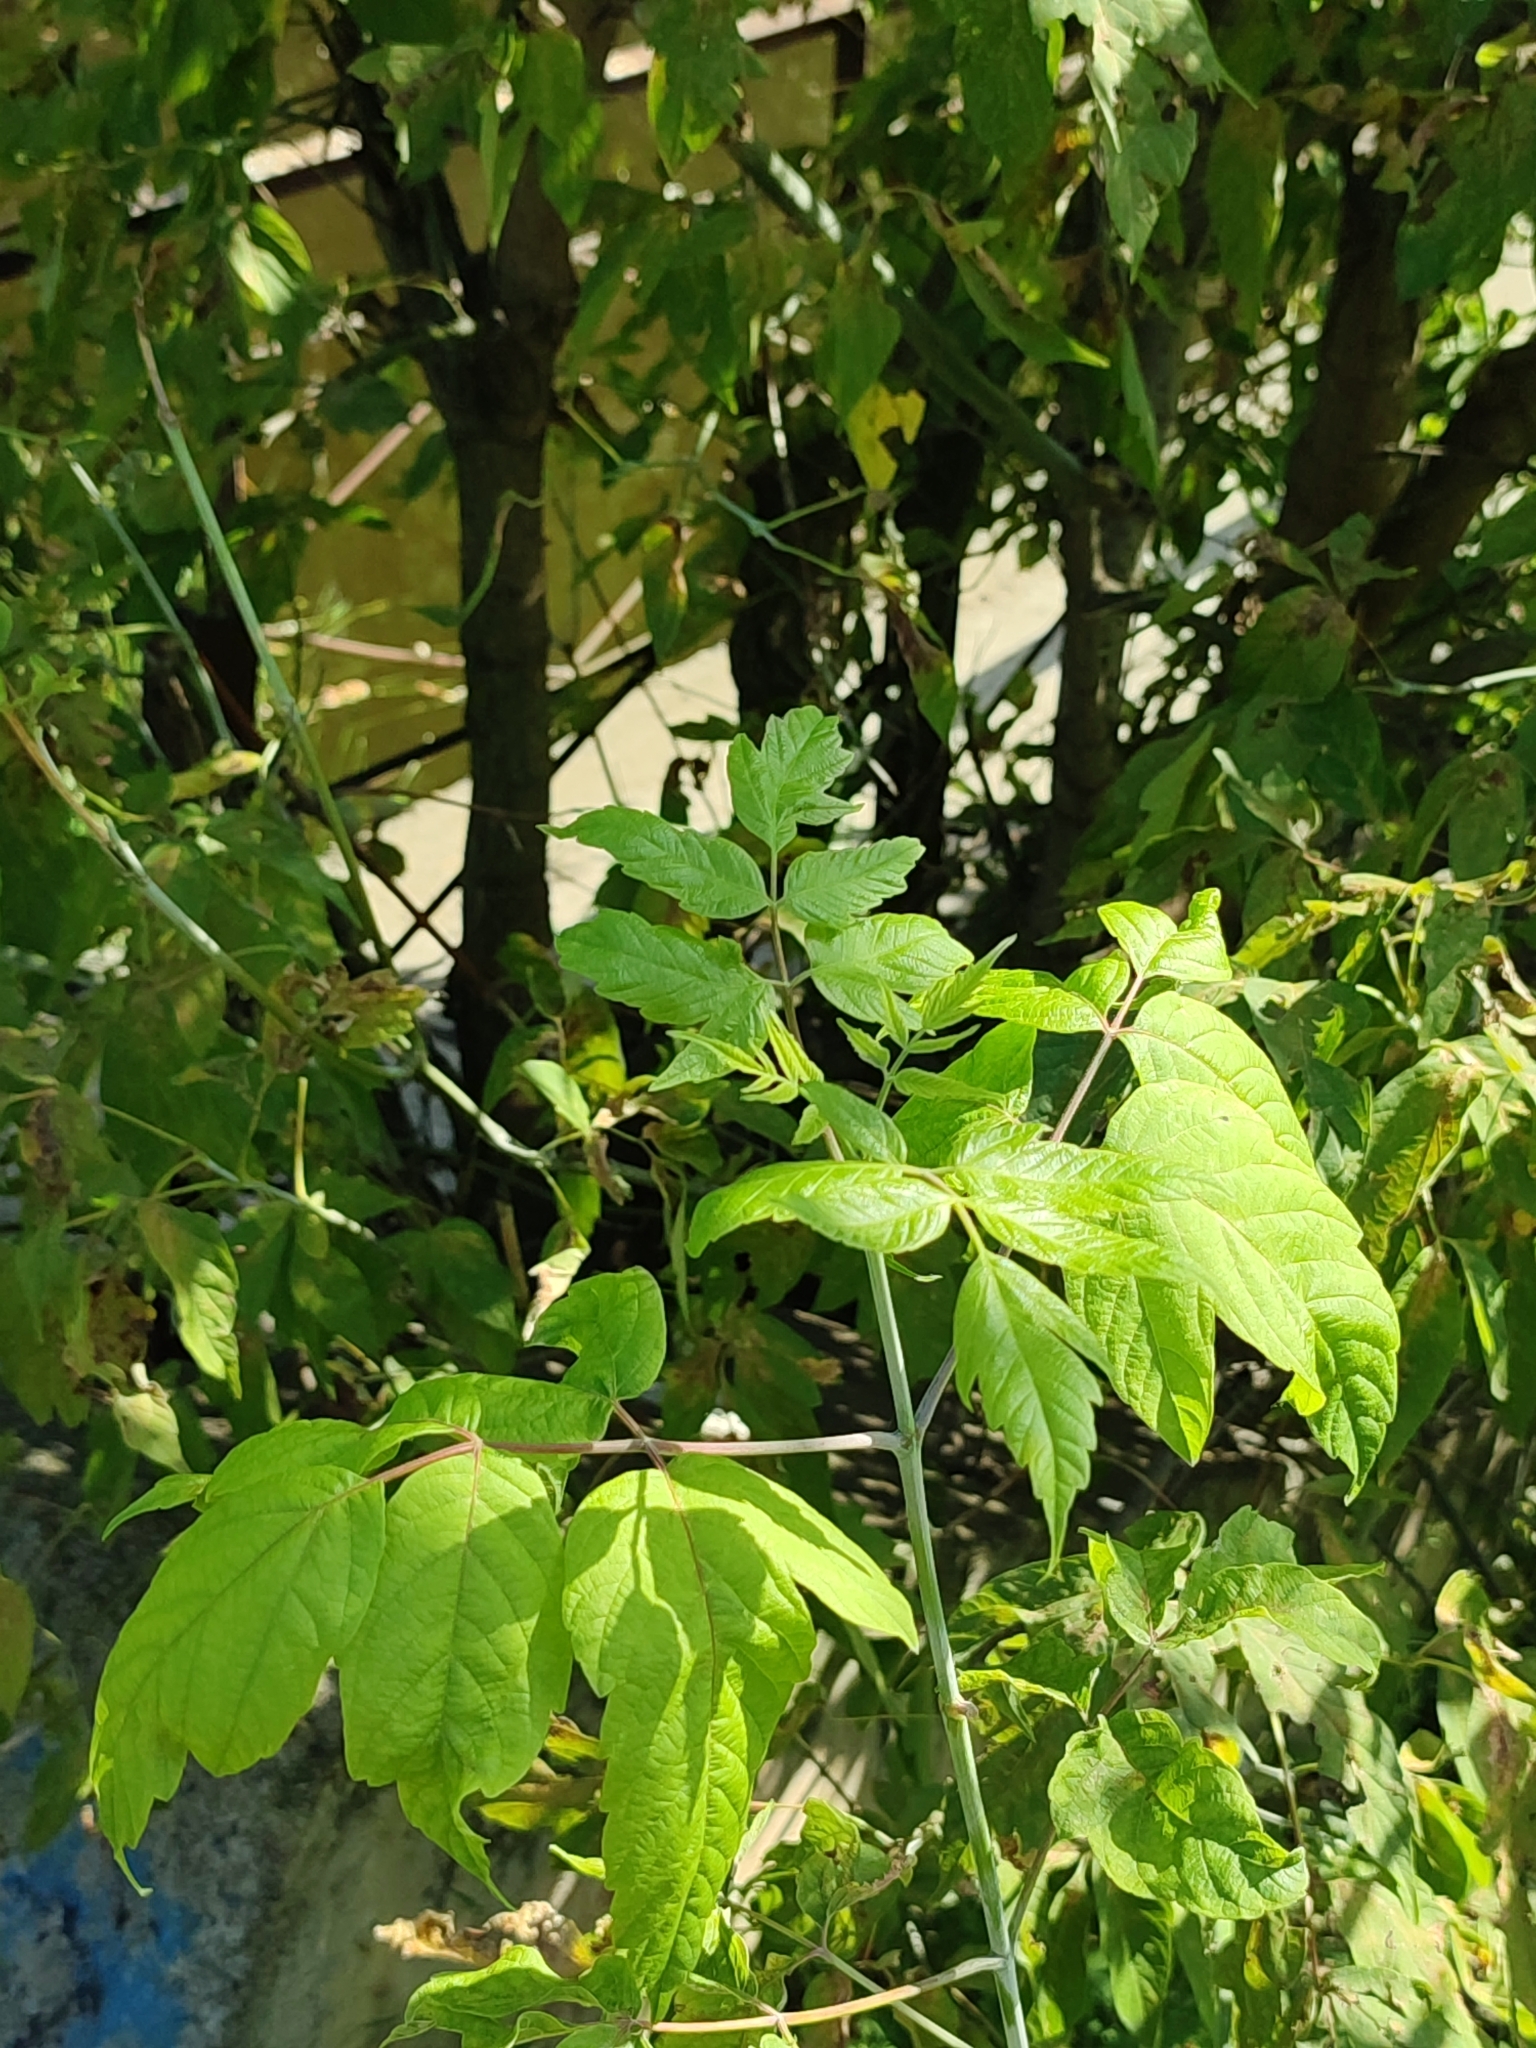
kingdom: Plantae
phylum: Tracheophyta
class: Magnoliopsida
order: Sapindales
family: Sapindaceae
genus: Acer
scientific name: Acer negundo
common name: Ashleaf maple
